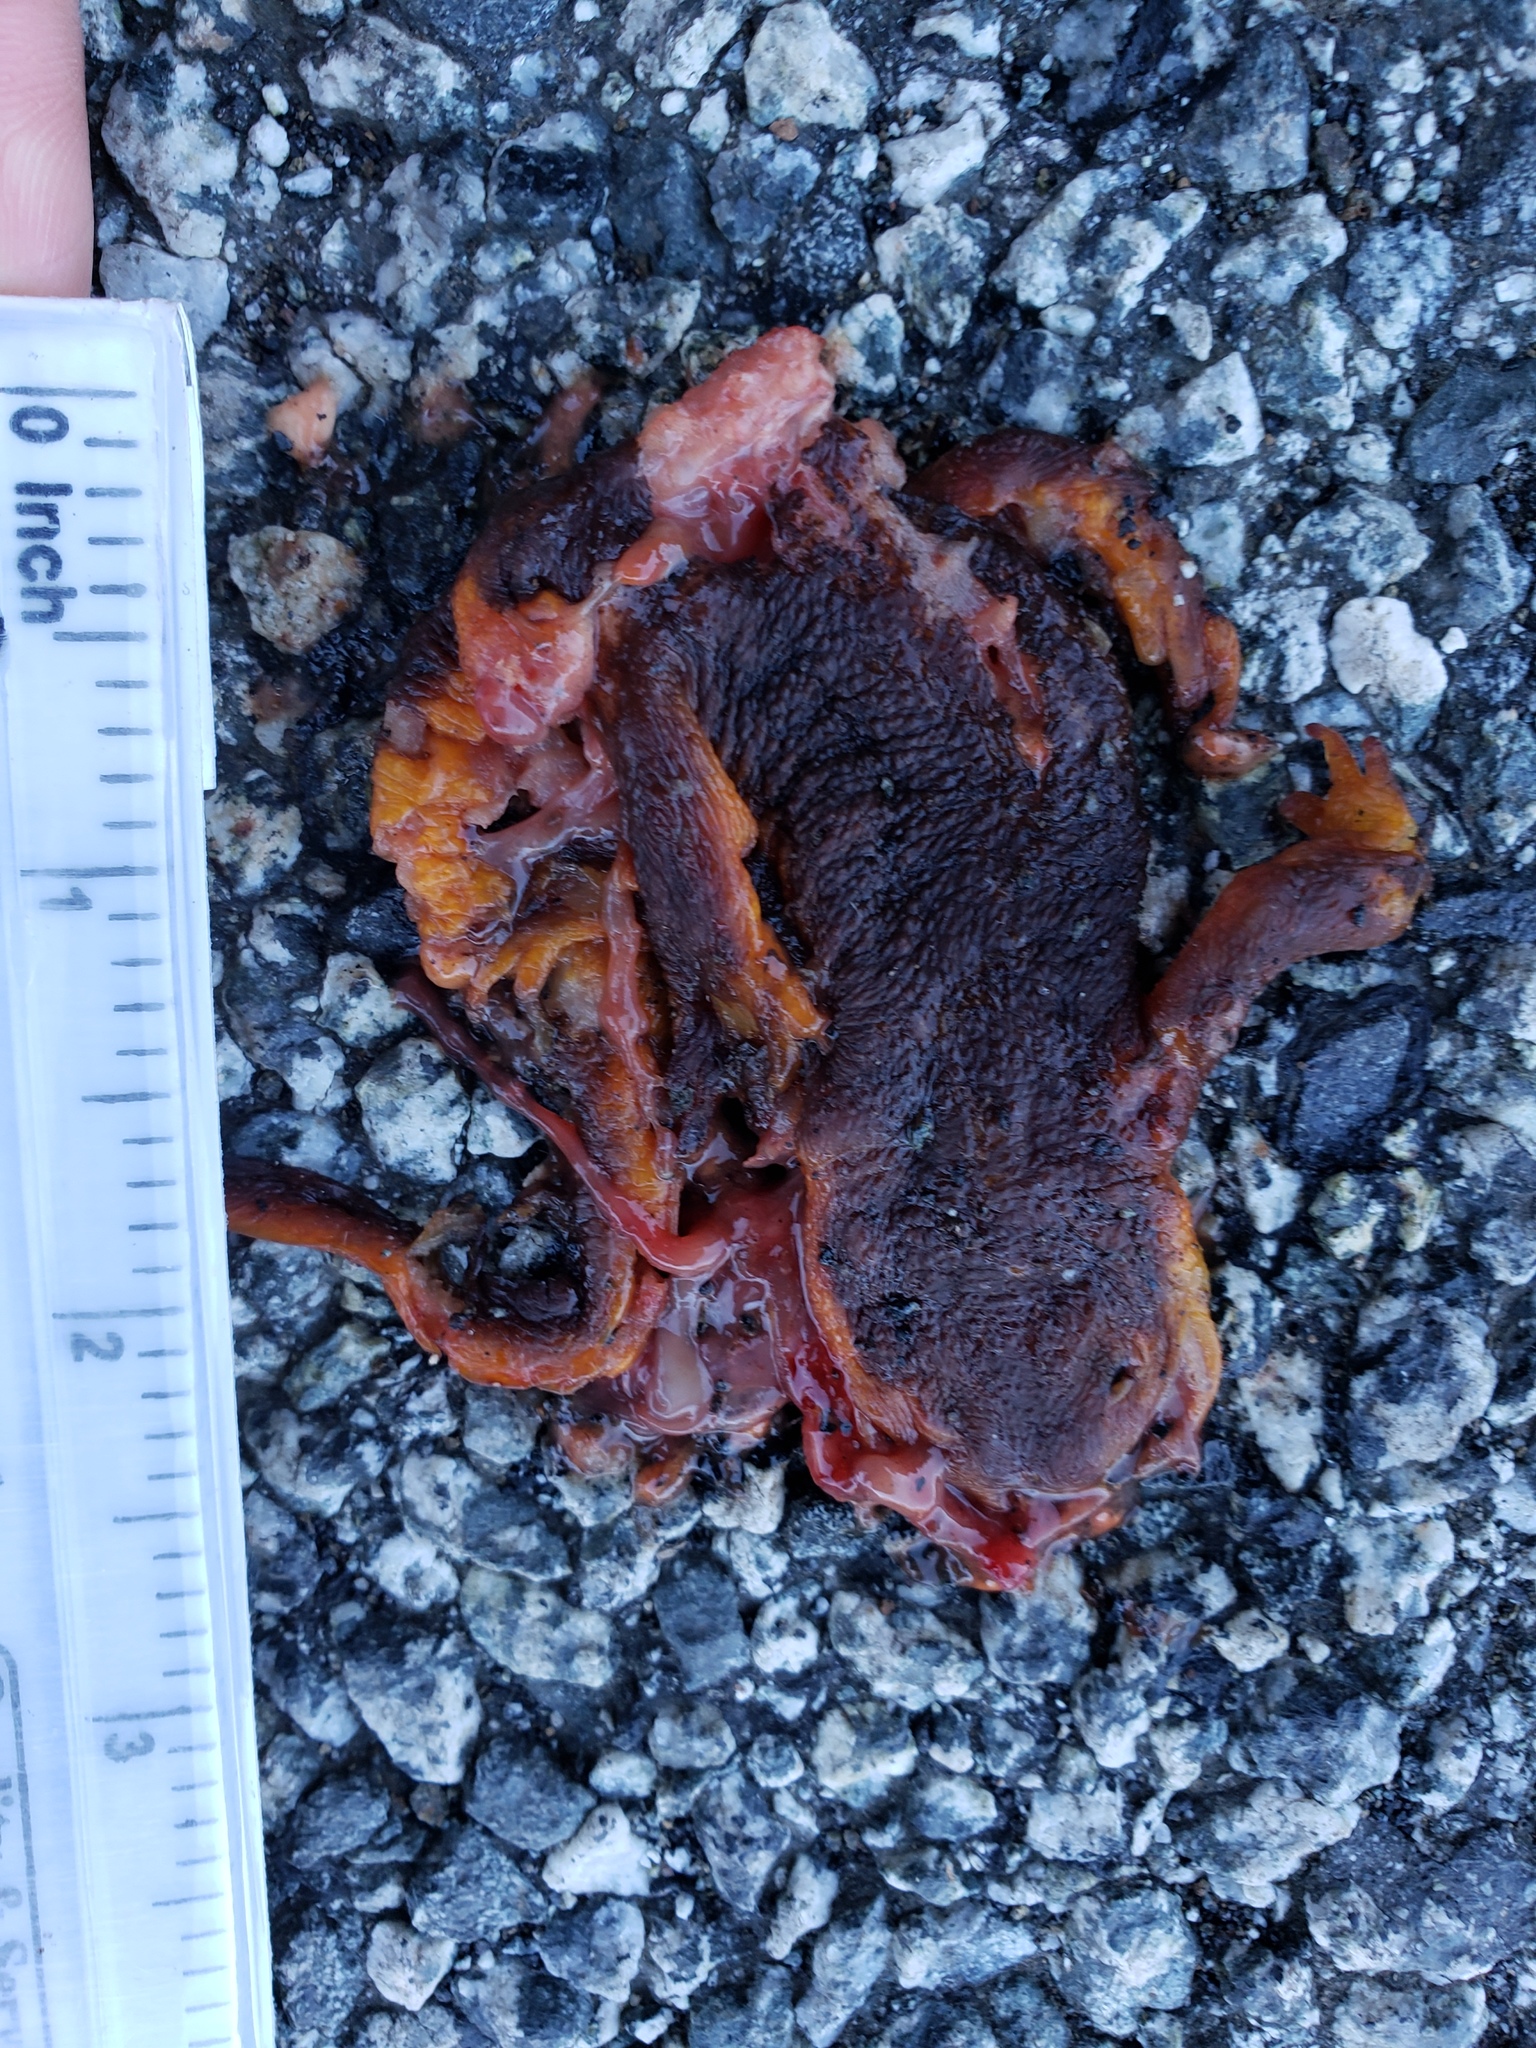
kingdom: Animalia
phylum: Chordata
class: Amphibia
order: Caudata
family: Salamandridae
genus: Taricha
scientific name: Taricha
